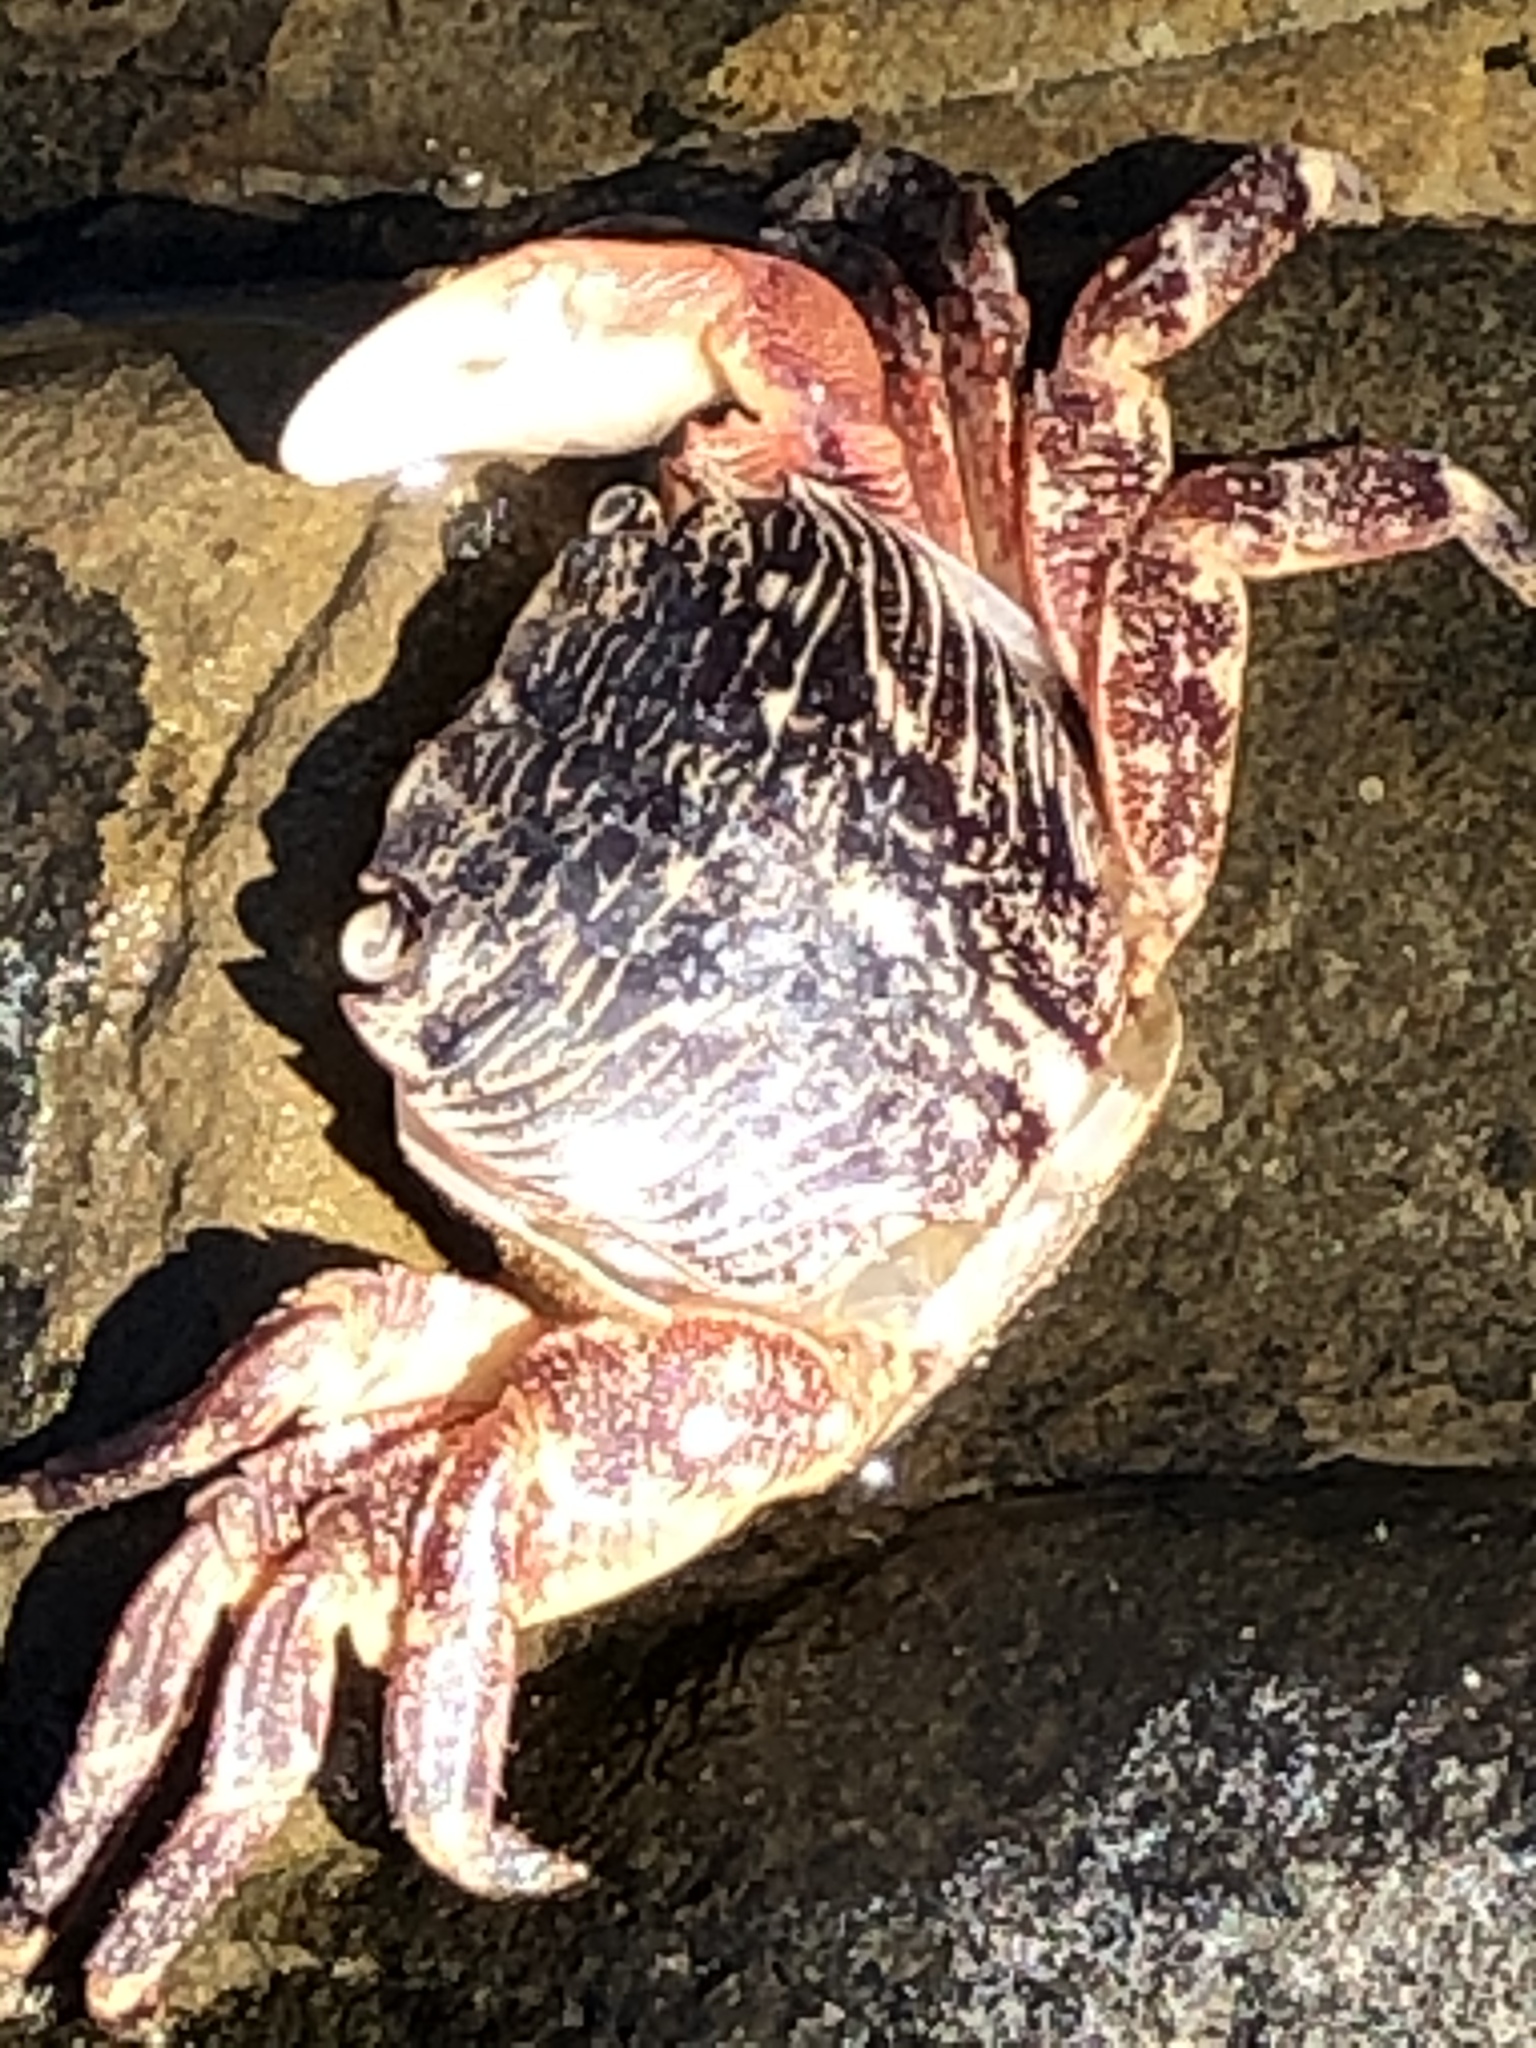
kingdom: Animalia
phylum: Arthropoda
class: Malacostraca
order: Decapoda
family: Grapsidae
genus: Pachygrapsus
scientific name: Pachygrapsus crassipes
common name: Striped shore crab
